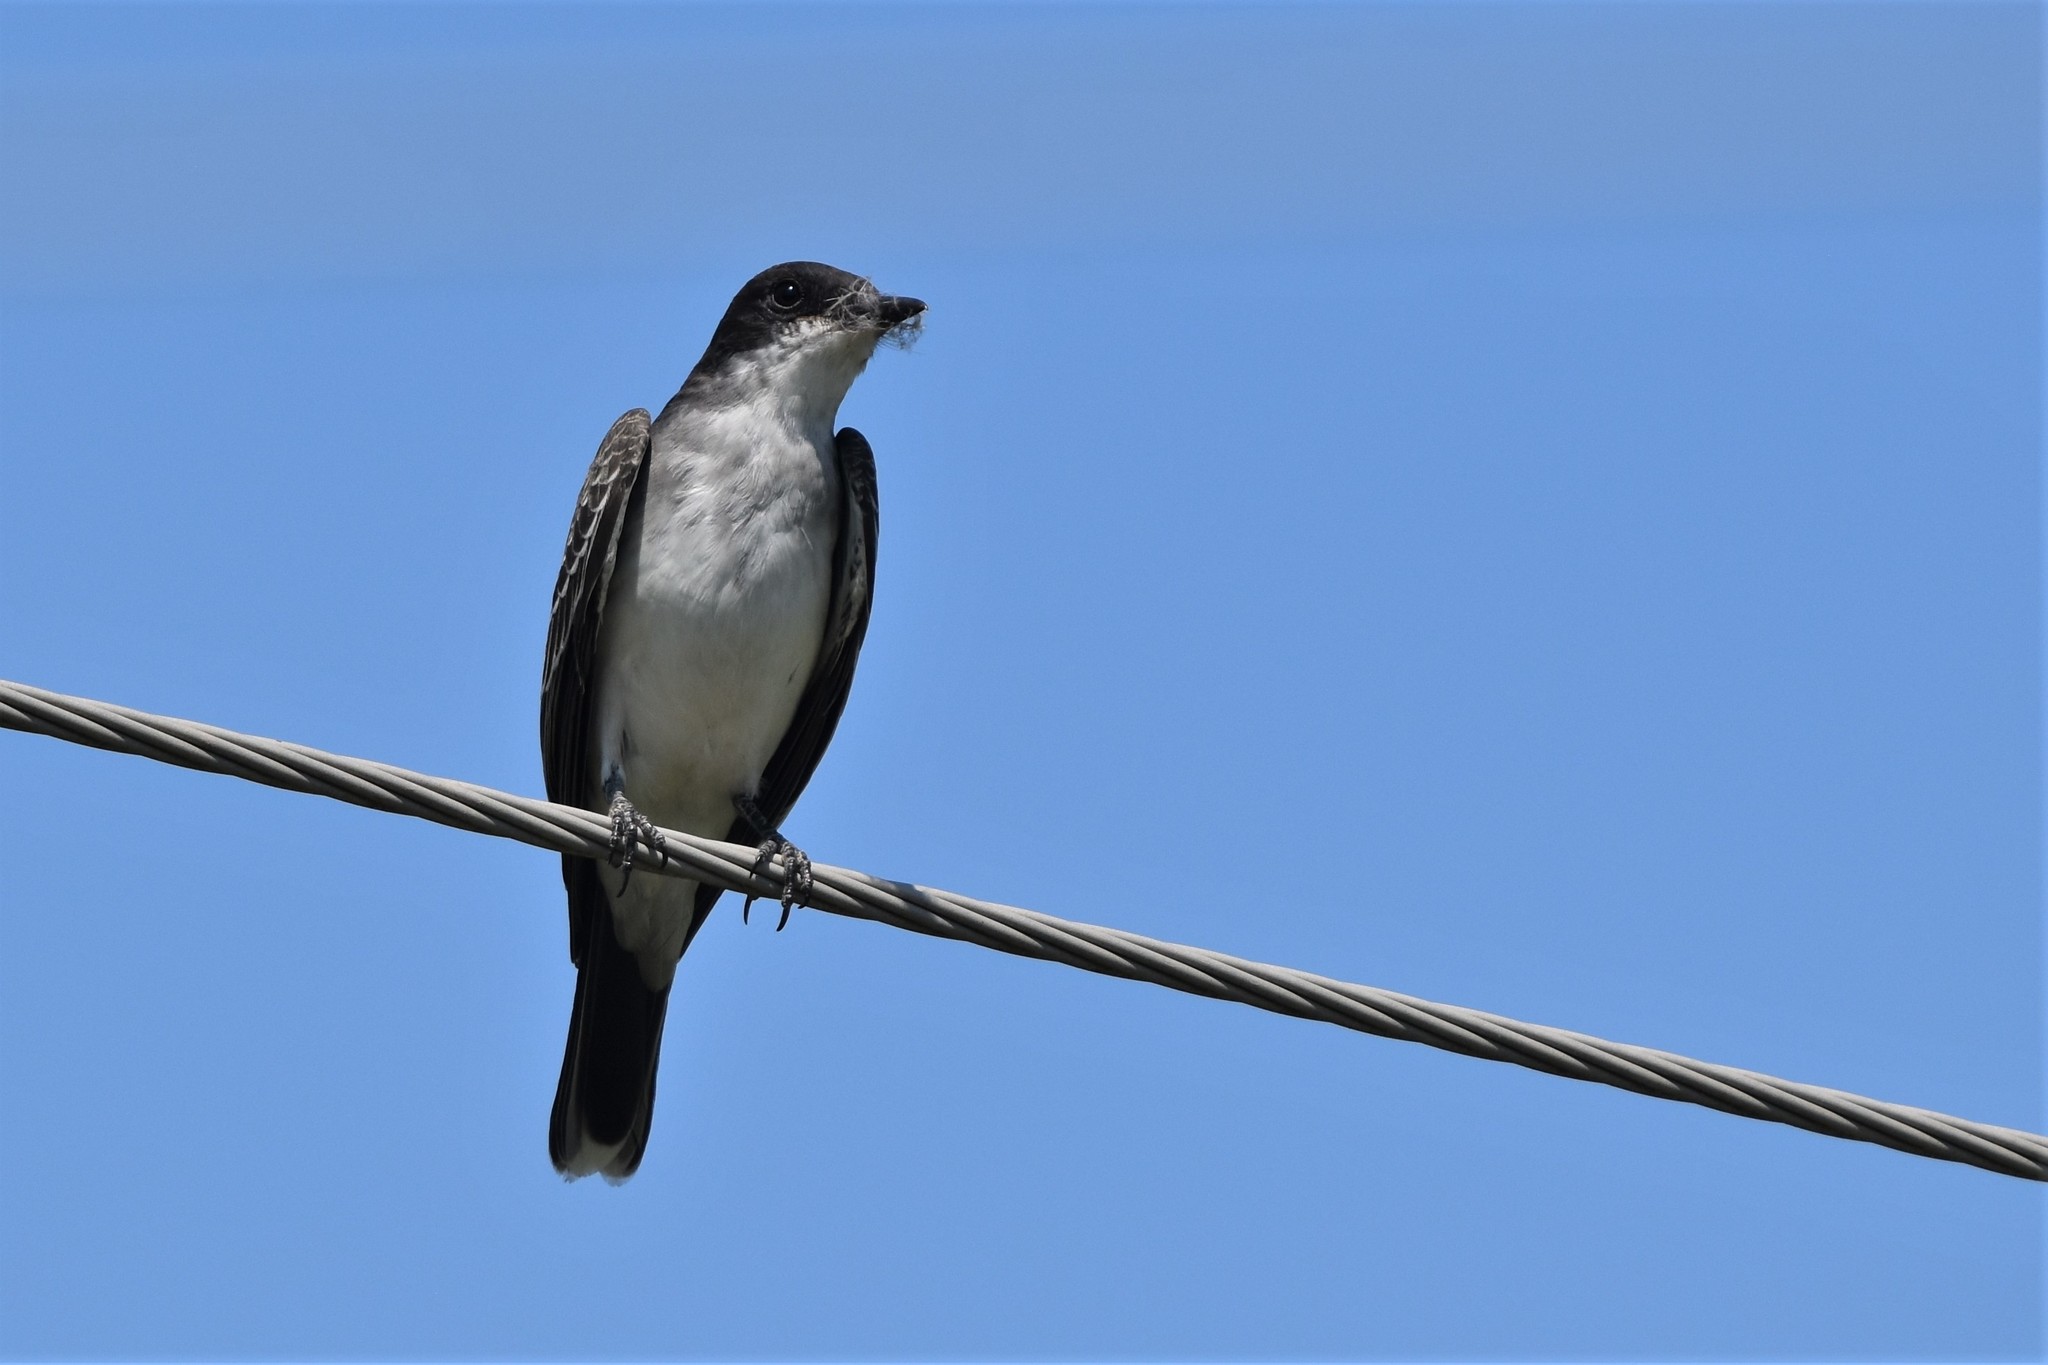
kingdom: Animalia
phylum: Chordata
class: Aves
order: Passeriformes
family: Tyrannidae
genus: Tyrannus
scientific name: Tyrannus tyrannus
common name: Eastern kingbird
